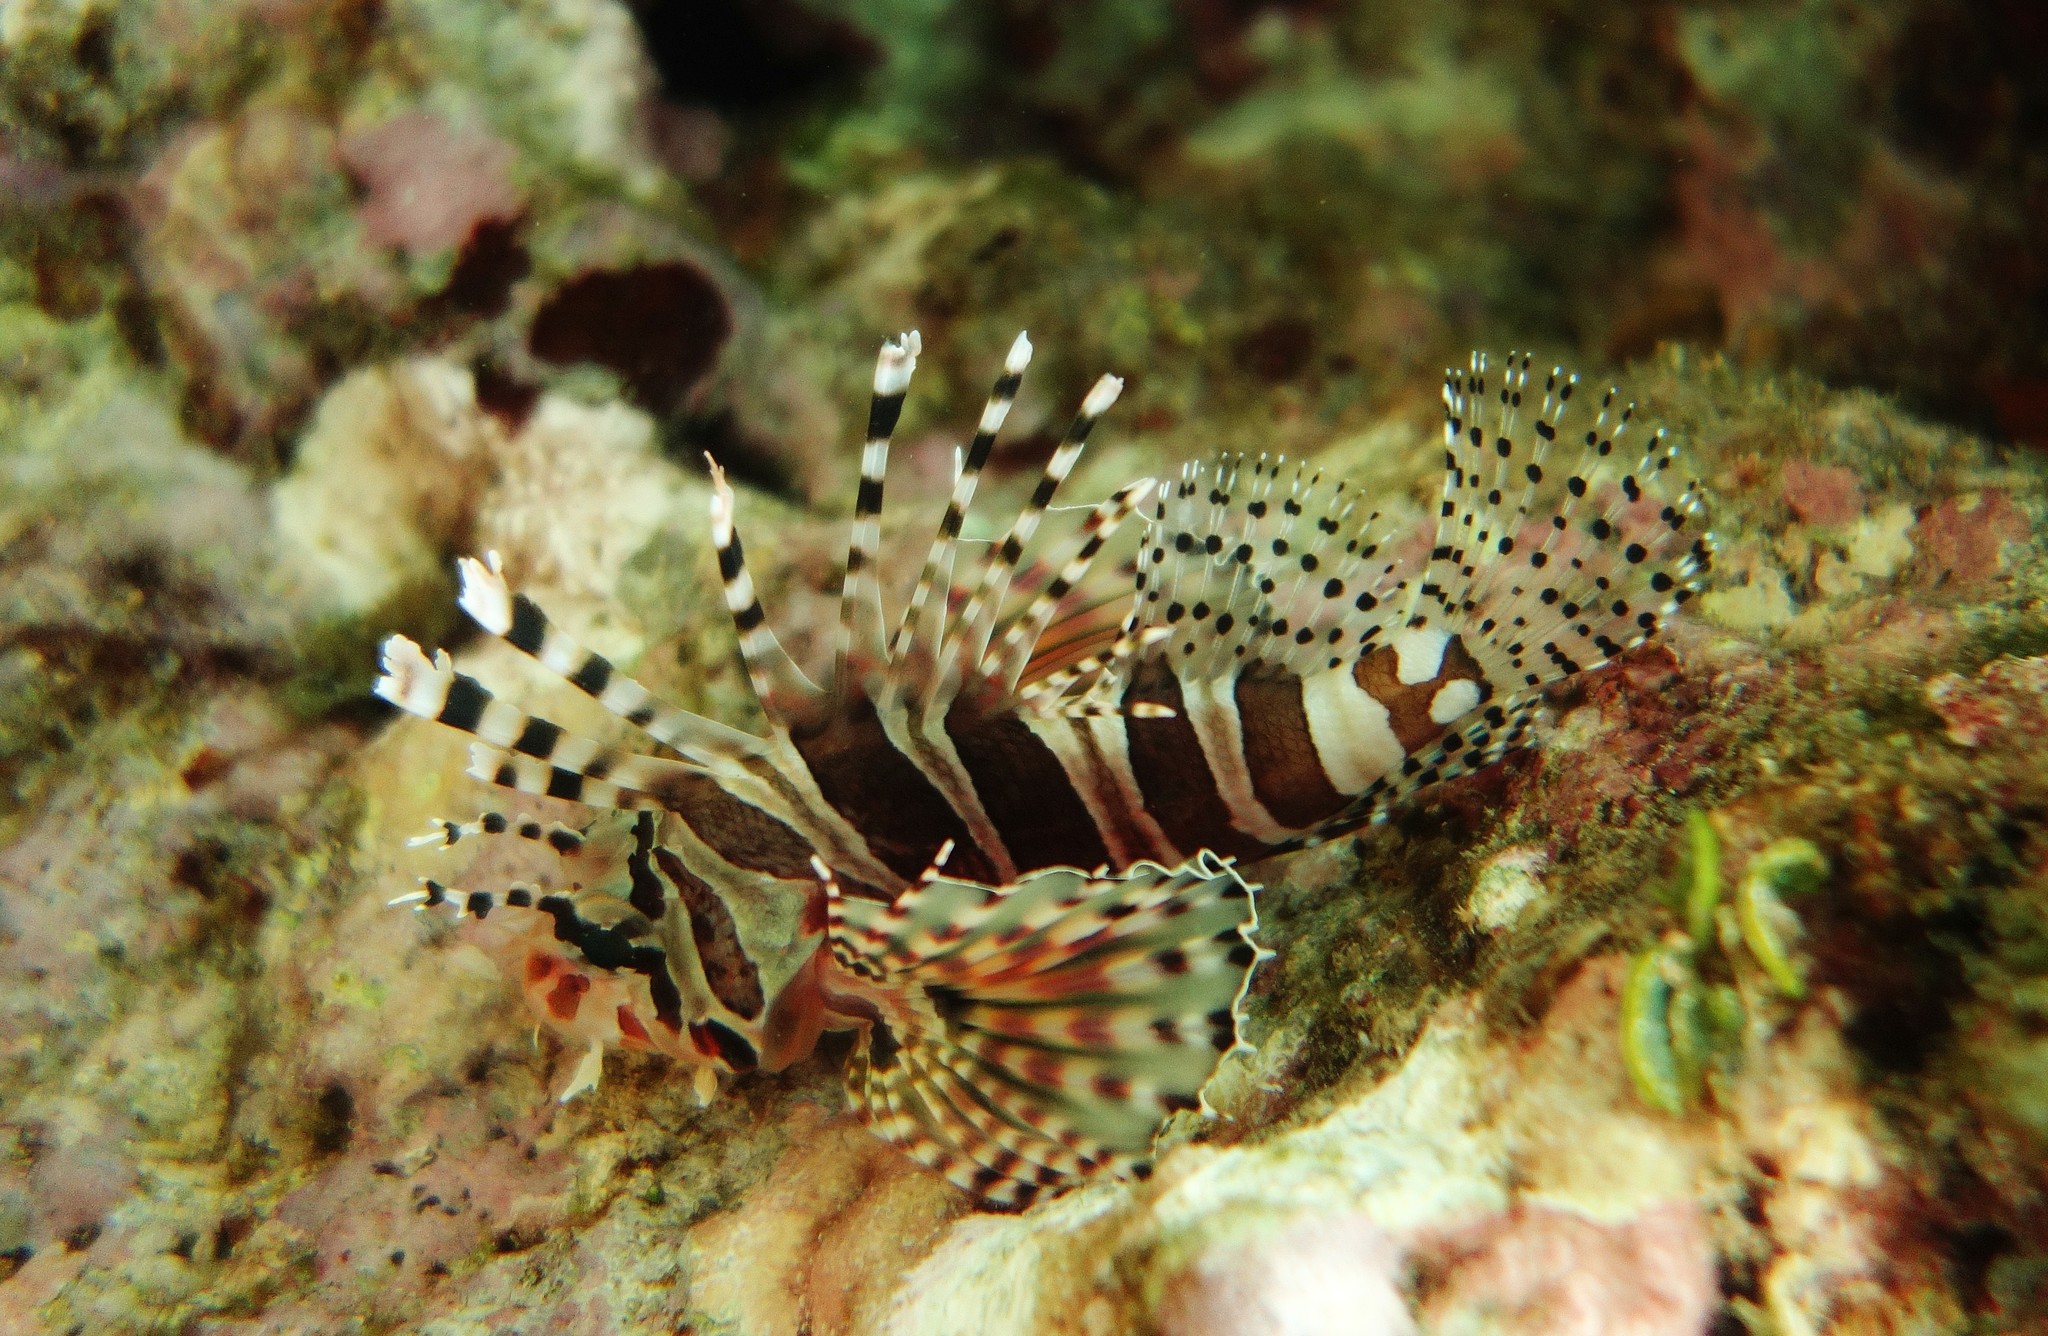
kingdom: Animalia
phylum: Chordata
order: Scorpaeniformes
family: Scorpaenidae
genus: Dendrochirus
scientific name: Dendrochirus zebra
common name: Zebra lionfish
